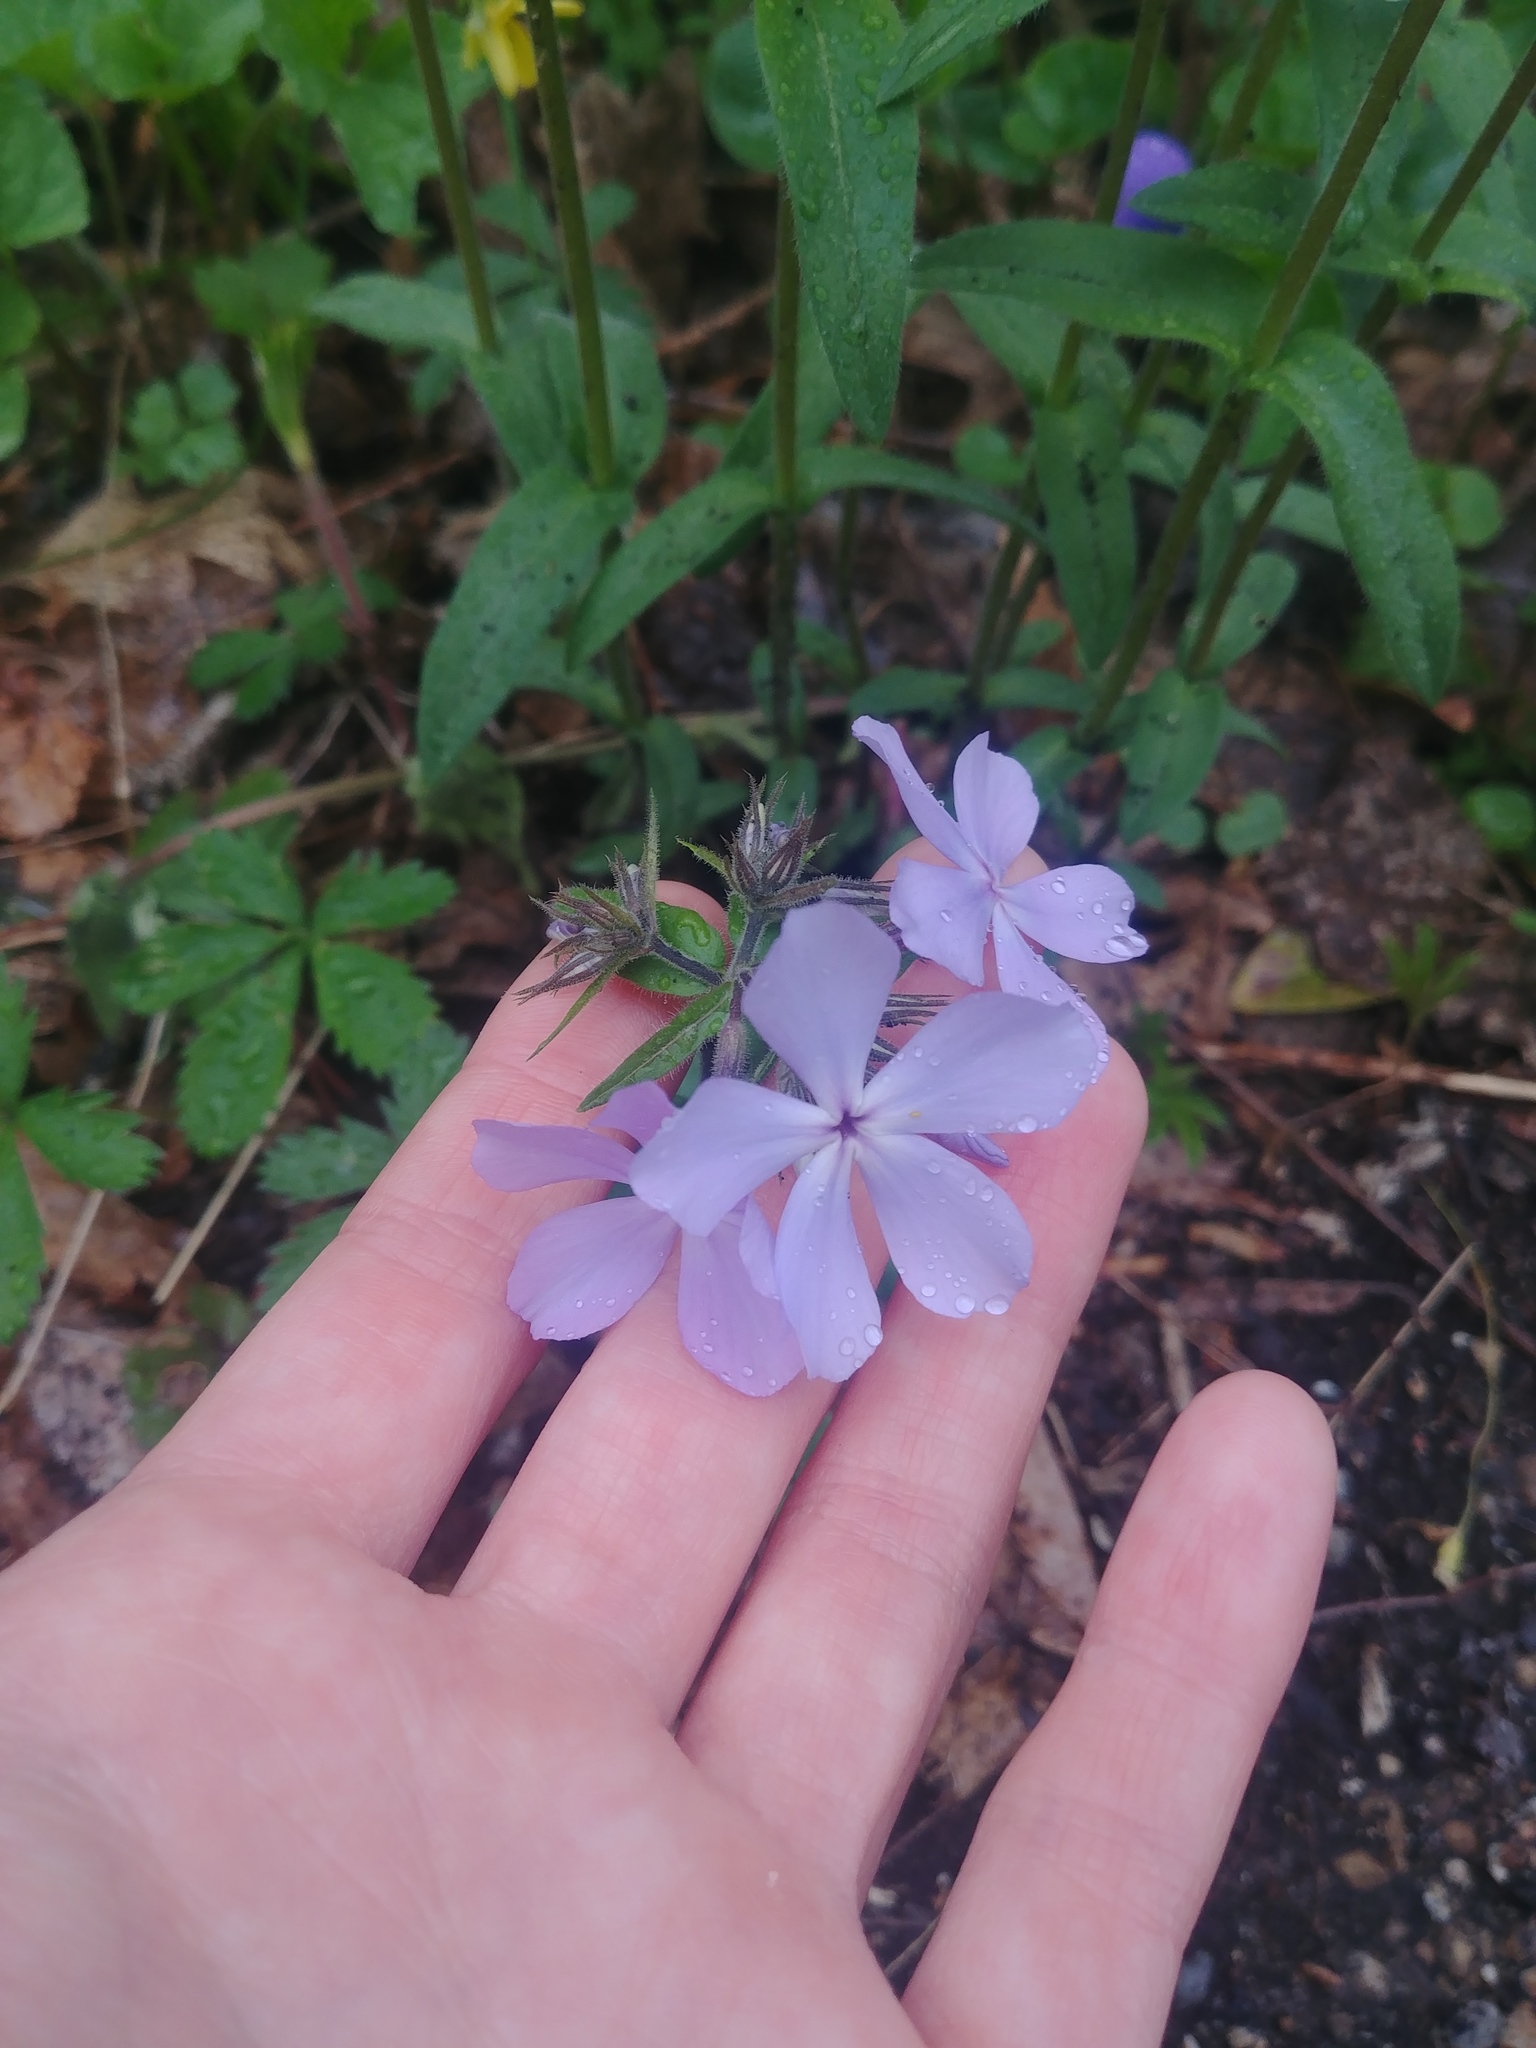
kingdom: Plantae
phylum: Tracheophyta
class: Magnoliopsida
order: Ericales
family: Polemoniaceae
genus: Phlox
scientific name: Phlox divaricata
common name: Blue phlox
